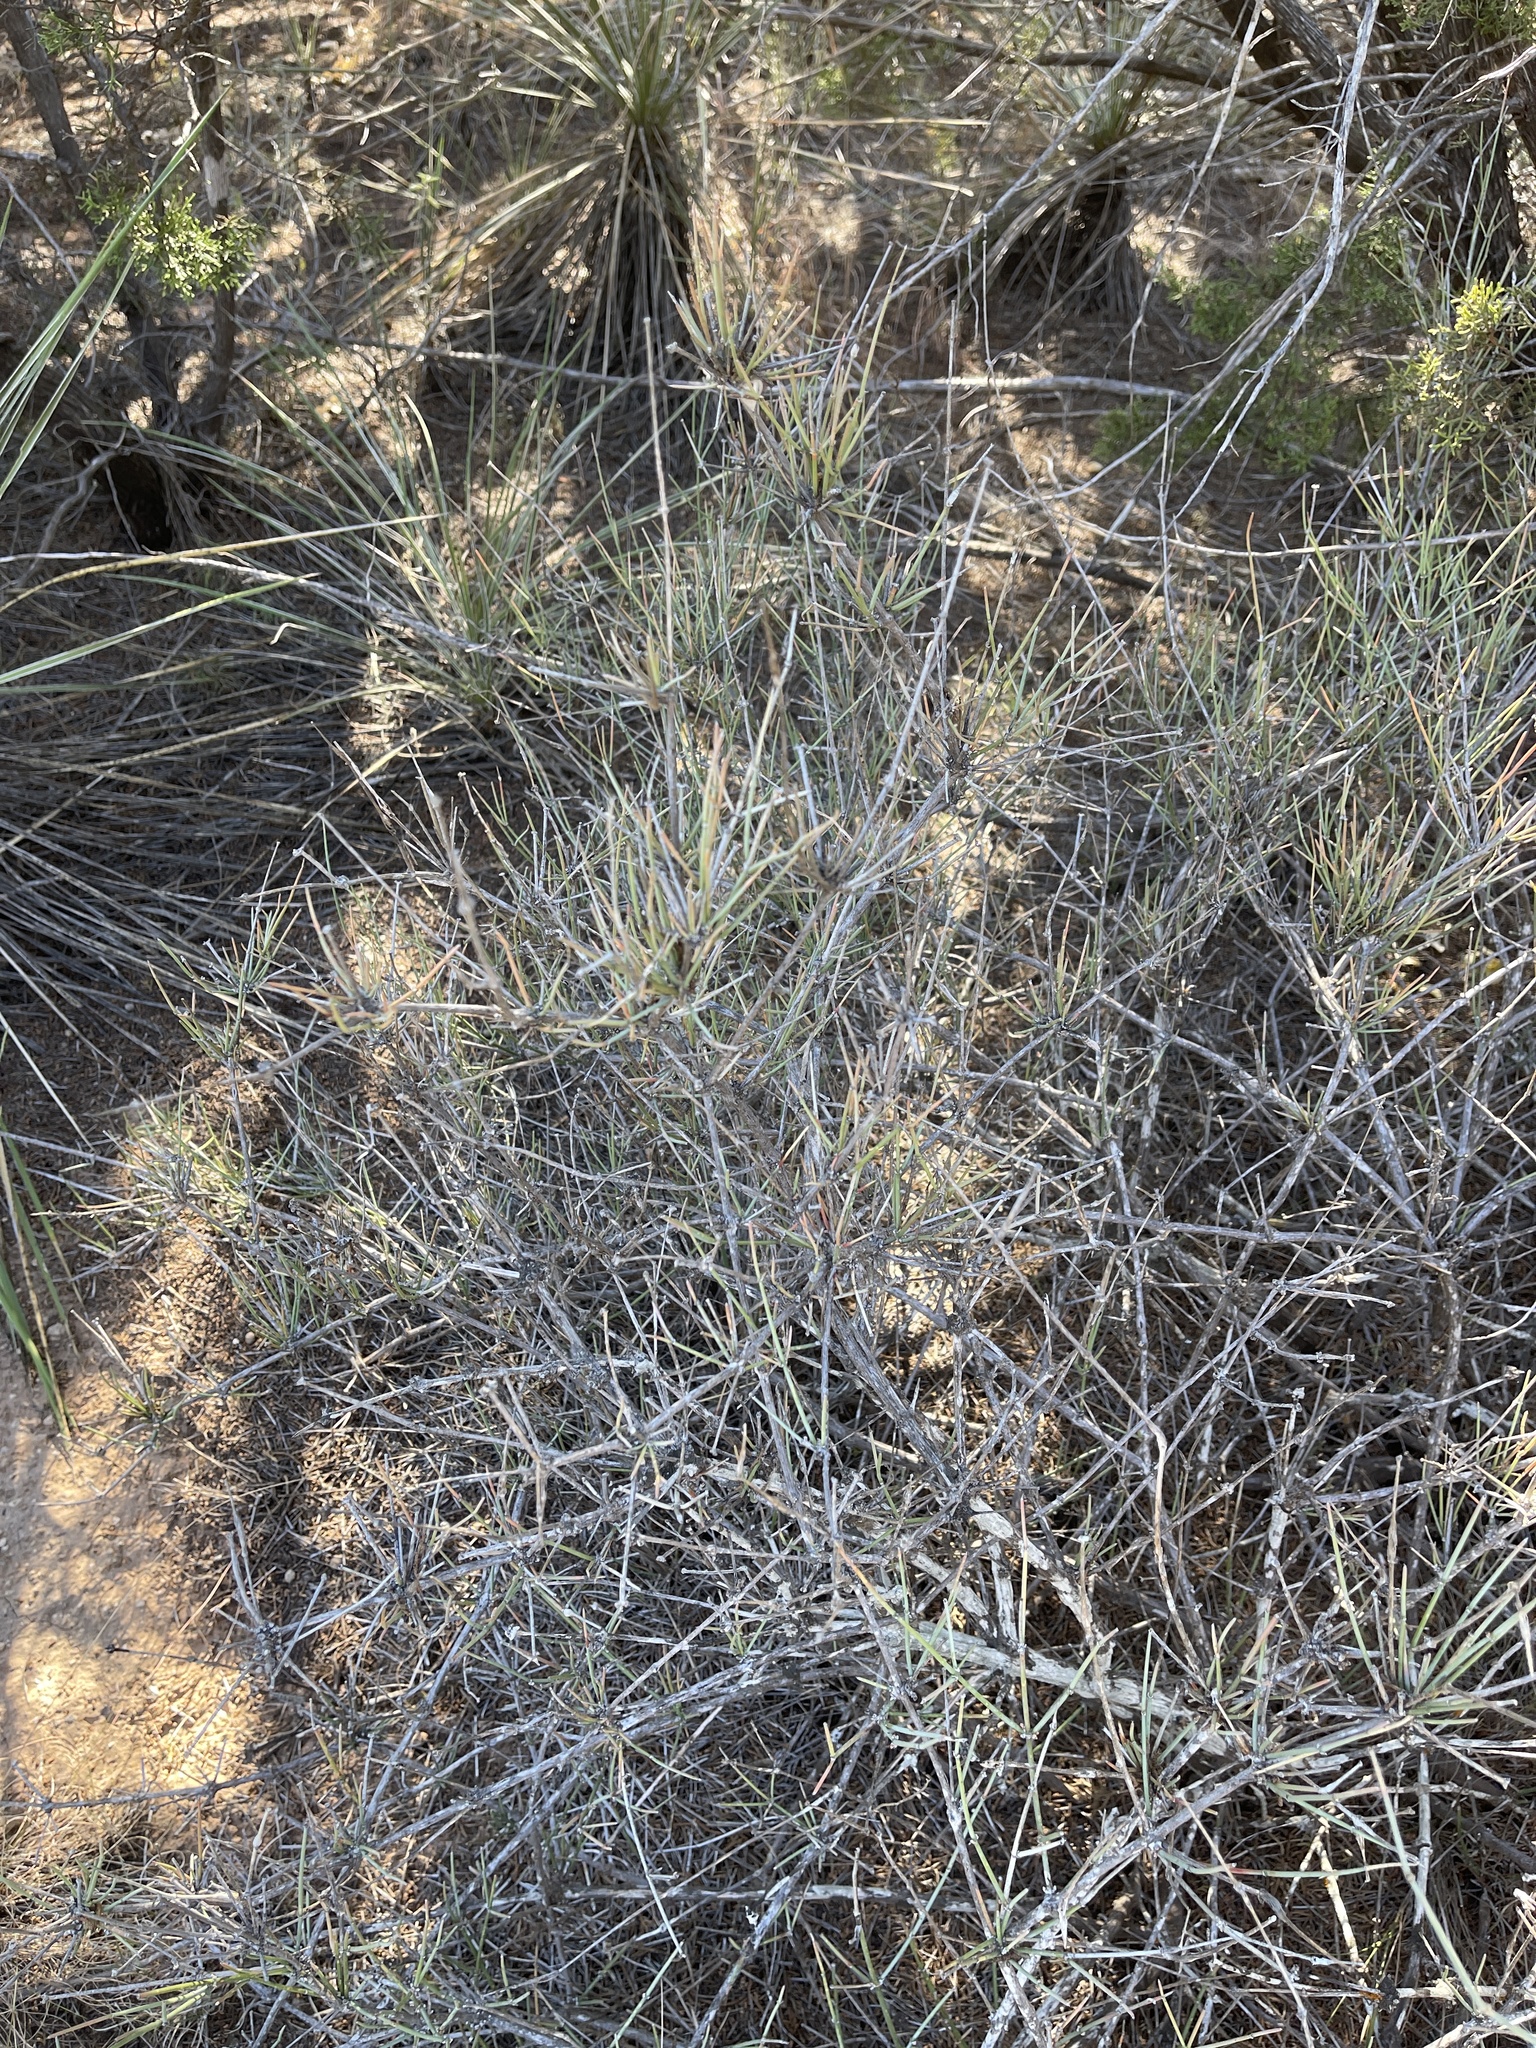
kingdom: Plantae
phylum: Tracheophyta
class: Gnetopsida
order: Ephedrales
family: Ephedraceae
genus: Ephedra
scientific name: Ephedra antisyphilitica
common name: Clipweed
